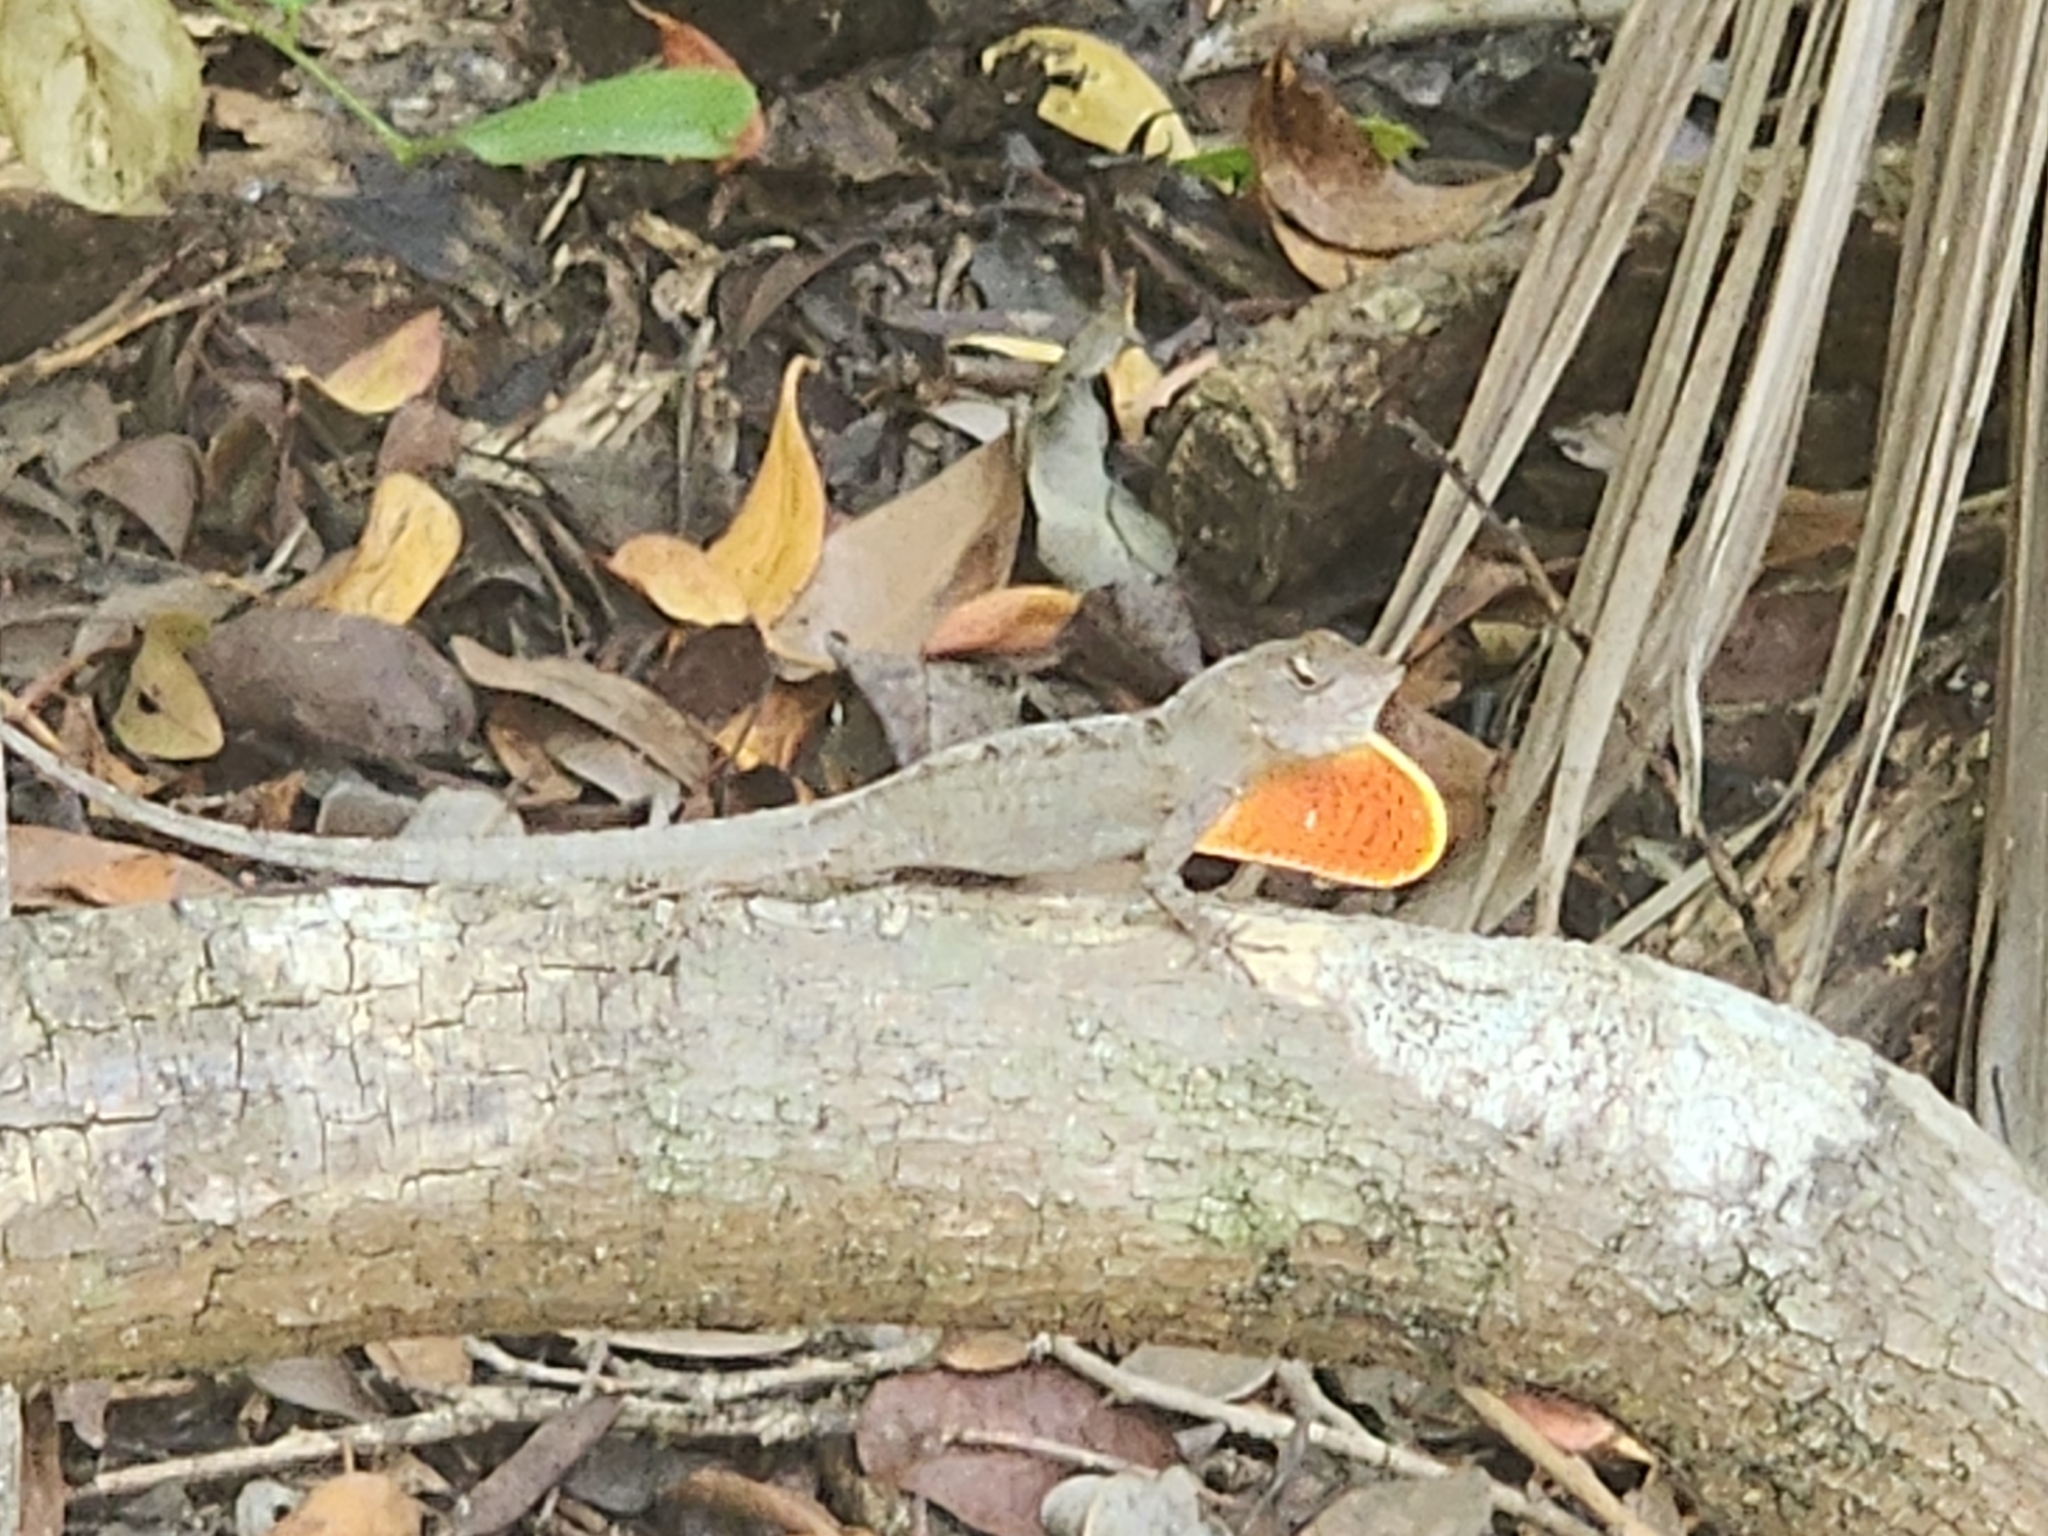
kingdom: Animalia
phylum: Chordata
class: Squamata
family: Dactyloidae
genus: Anolis
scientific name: Anolis sagrei
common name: Brown anole
